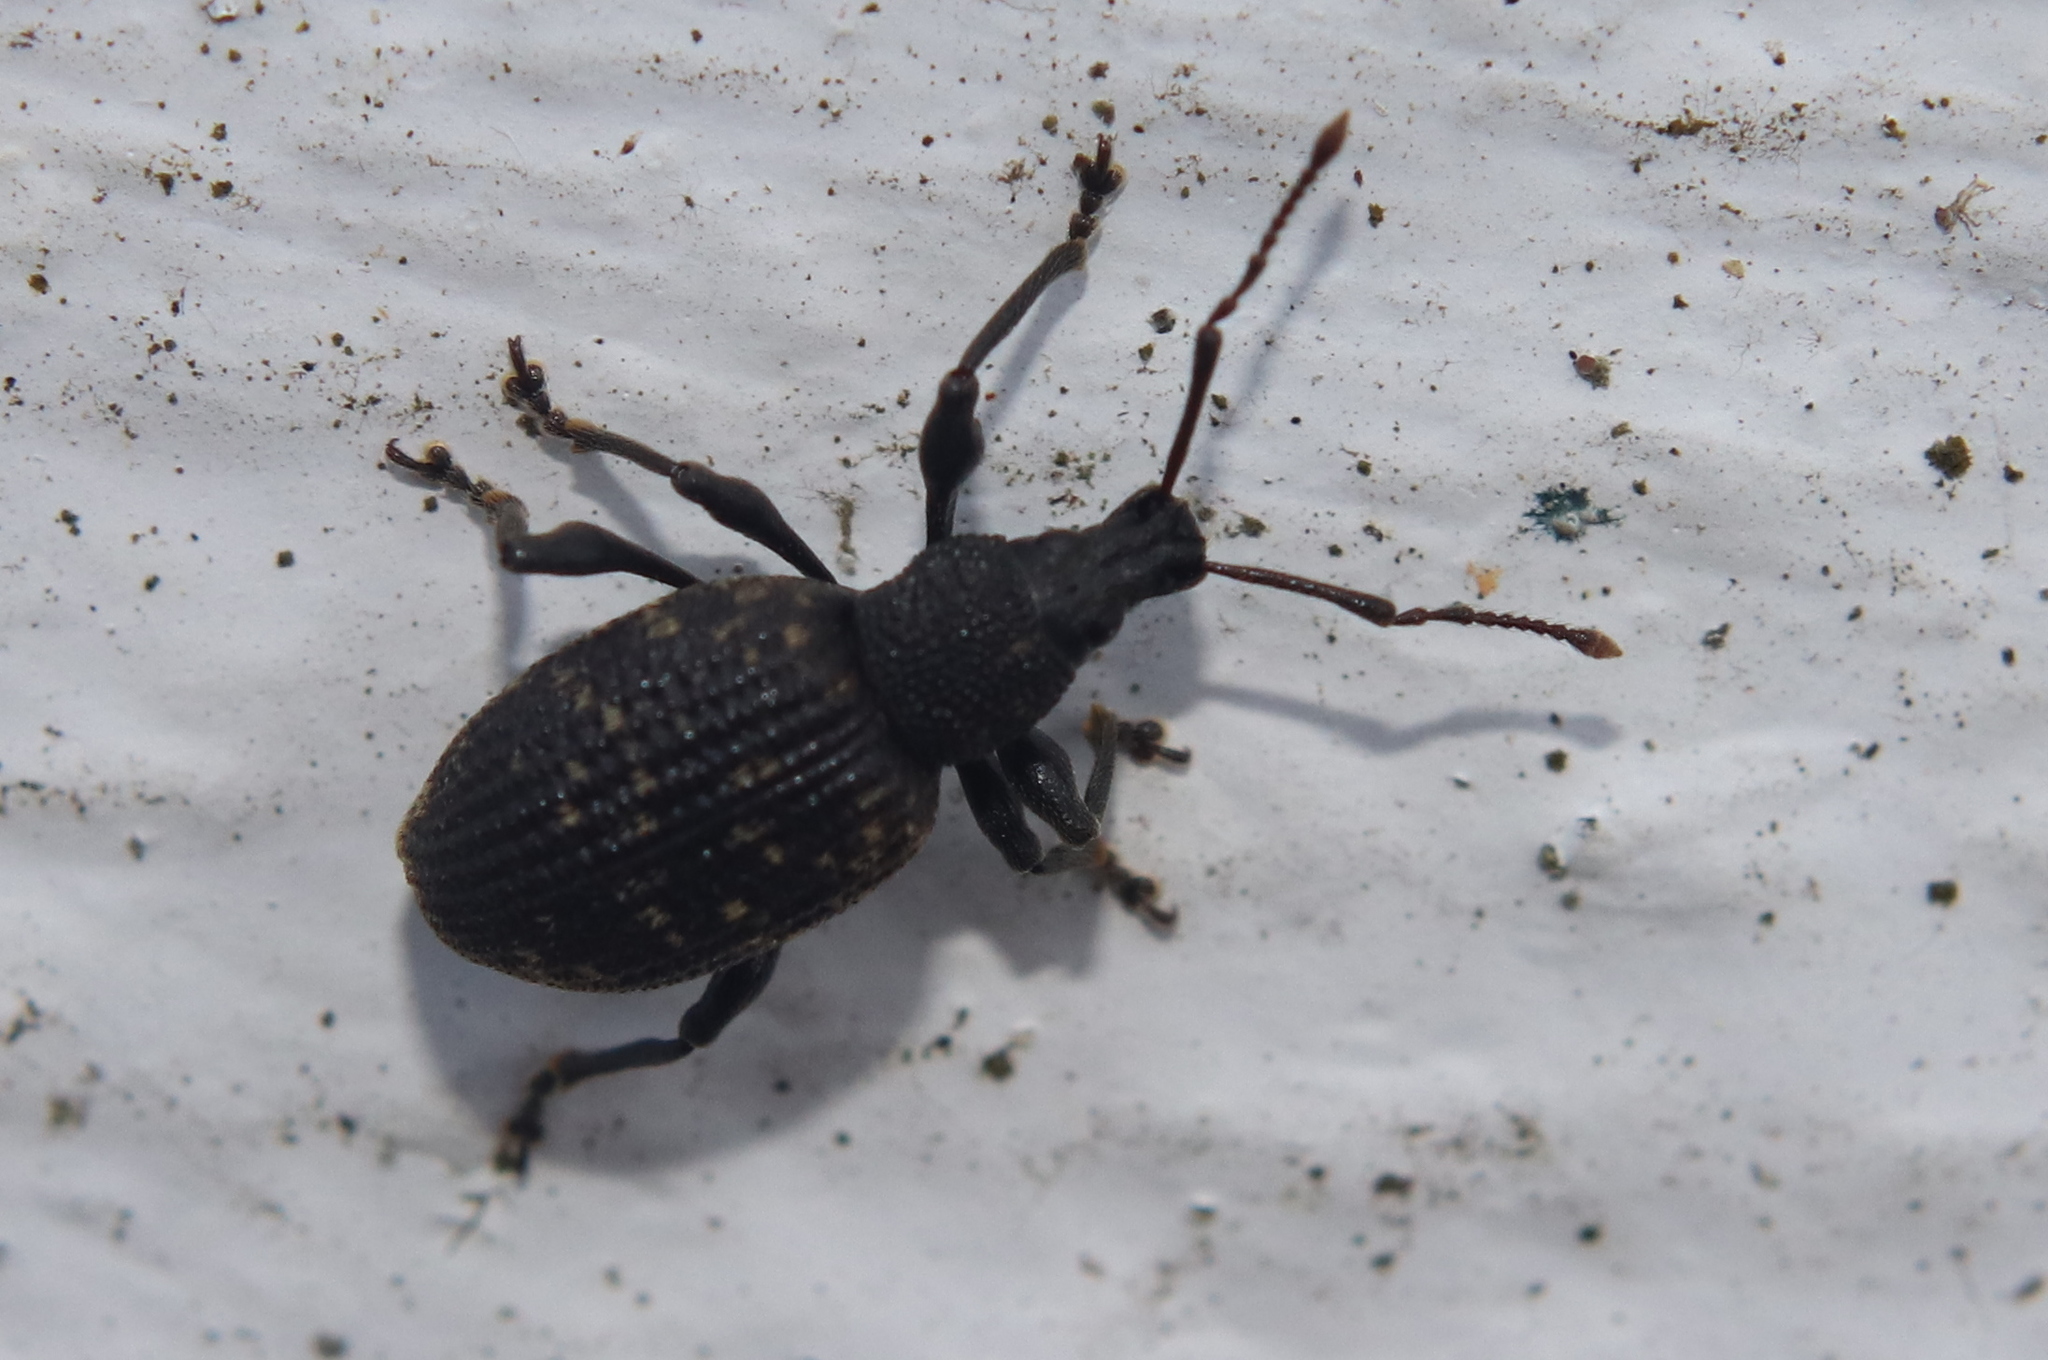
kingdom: Animalia
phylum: Arthropoda
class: Insecta
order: Coleoptera
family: Curculionidae
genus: Otiorhynchus
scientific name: Otiorhynchus sulcatus
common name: Black vine weevil
